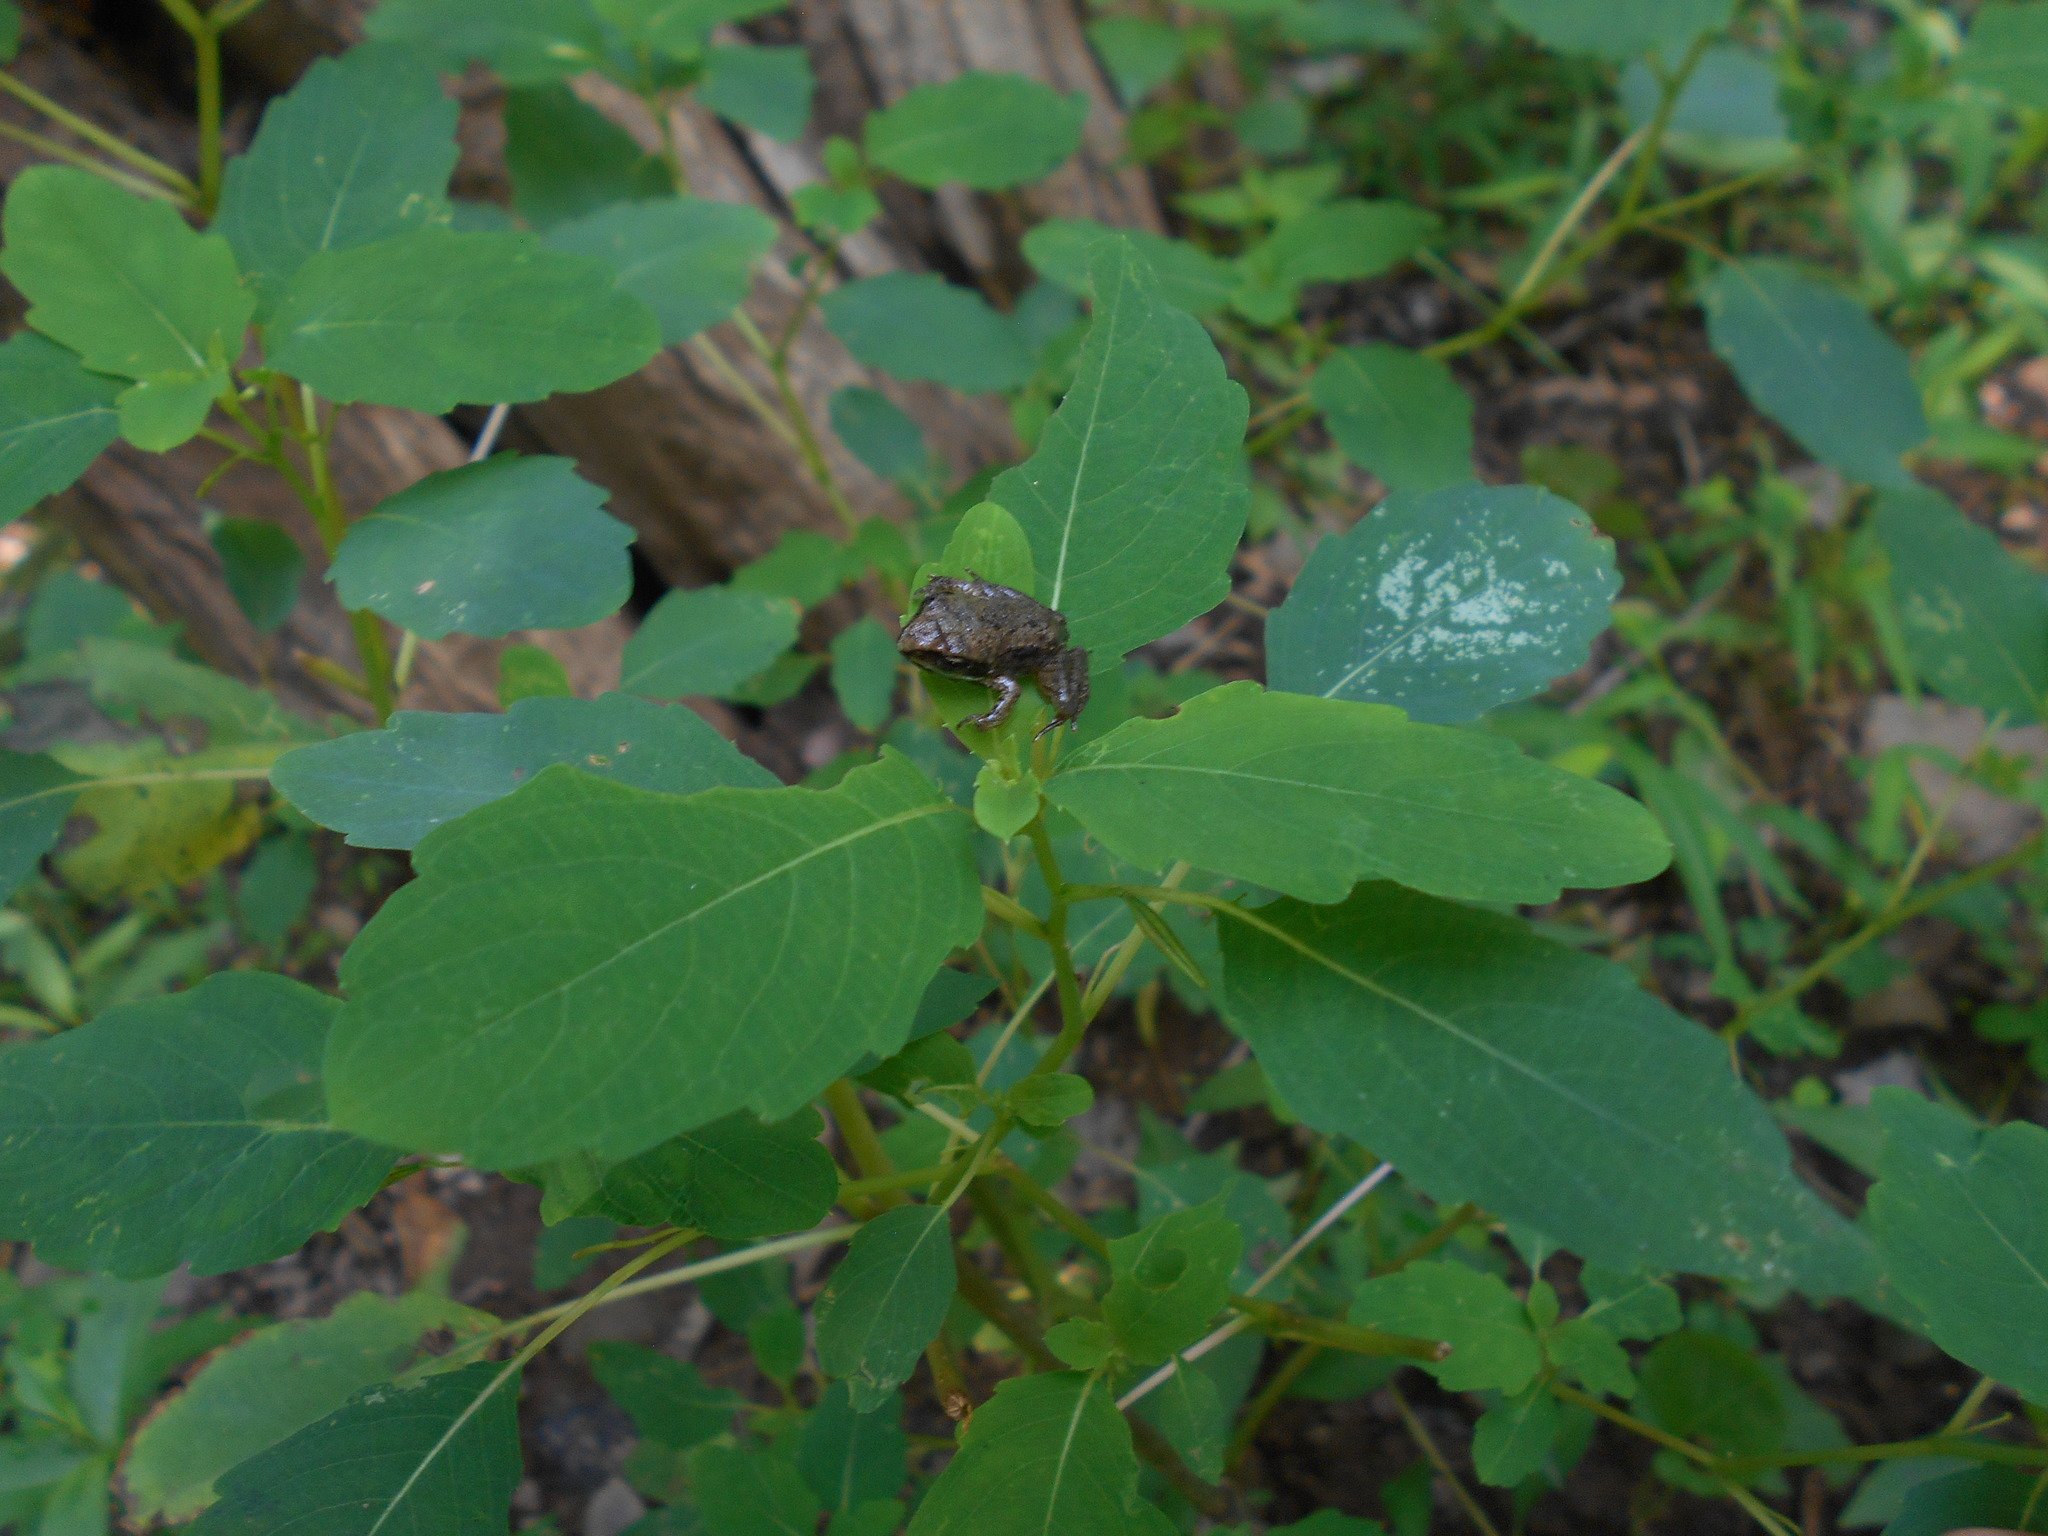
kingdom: Animalia
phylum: Chordata
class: Amphibia
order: Anura
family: Ranidae
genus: Lithobates
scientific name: Lithobates sylvaticus
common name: Wood frog
